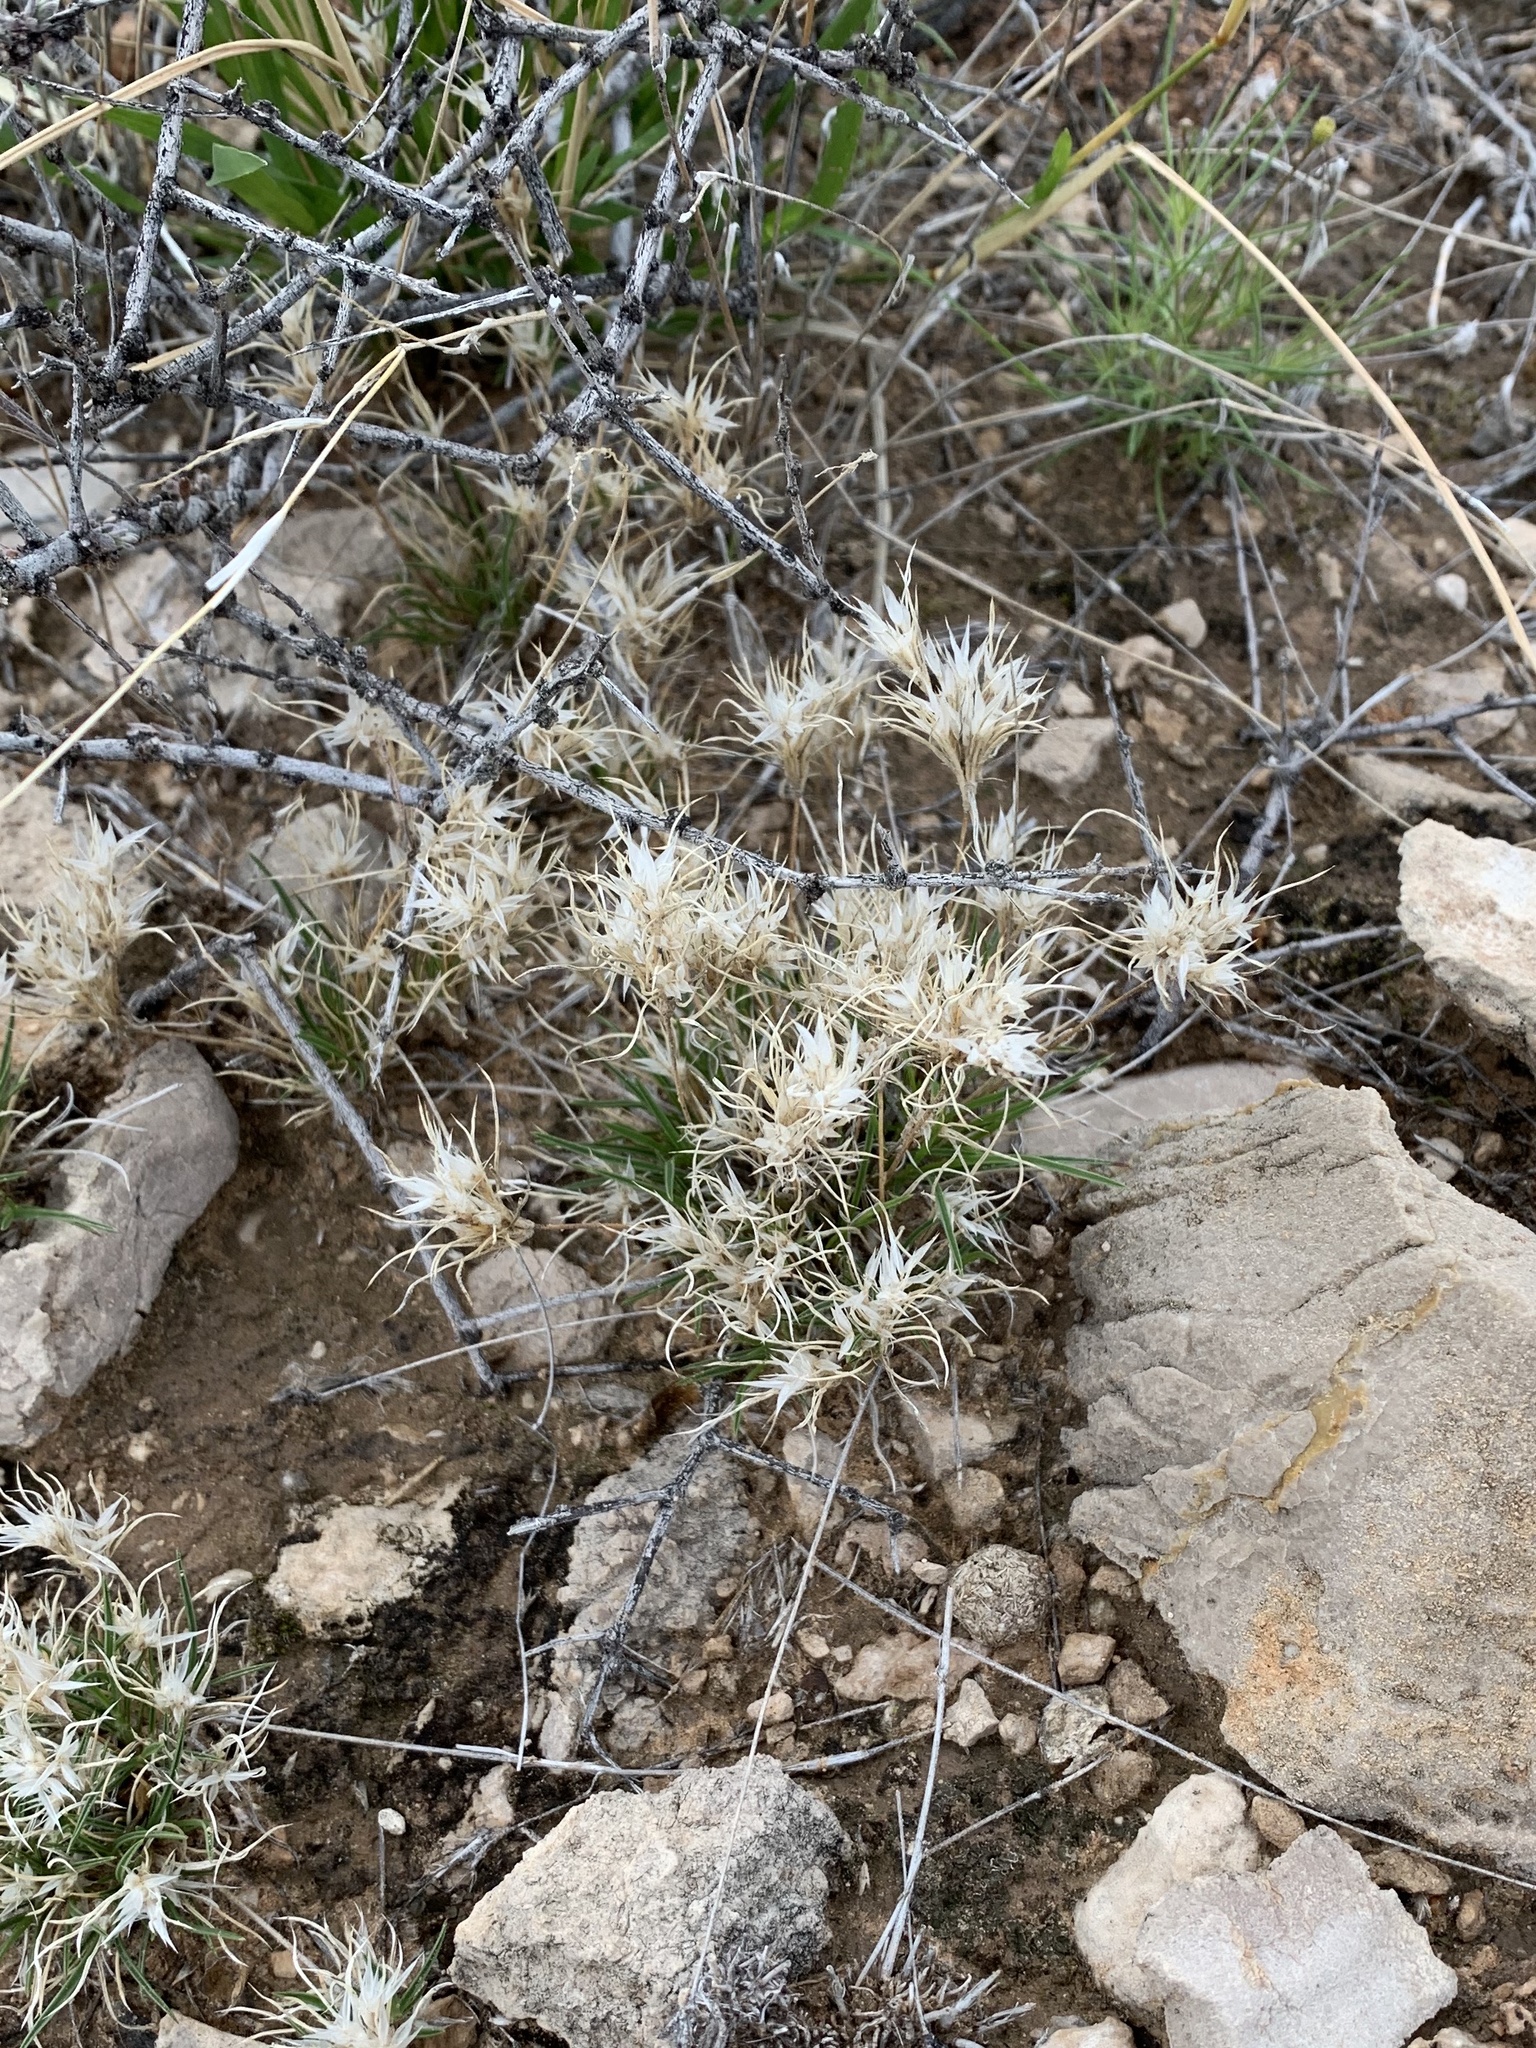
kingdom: Plantae
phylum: Tracheophyta
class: Liliopsida
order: Poales
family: Poaceae
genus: Dasyochloa
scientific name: Dasyochloa pulchella
